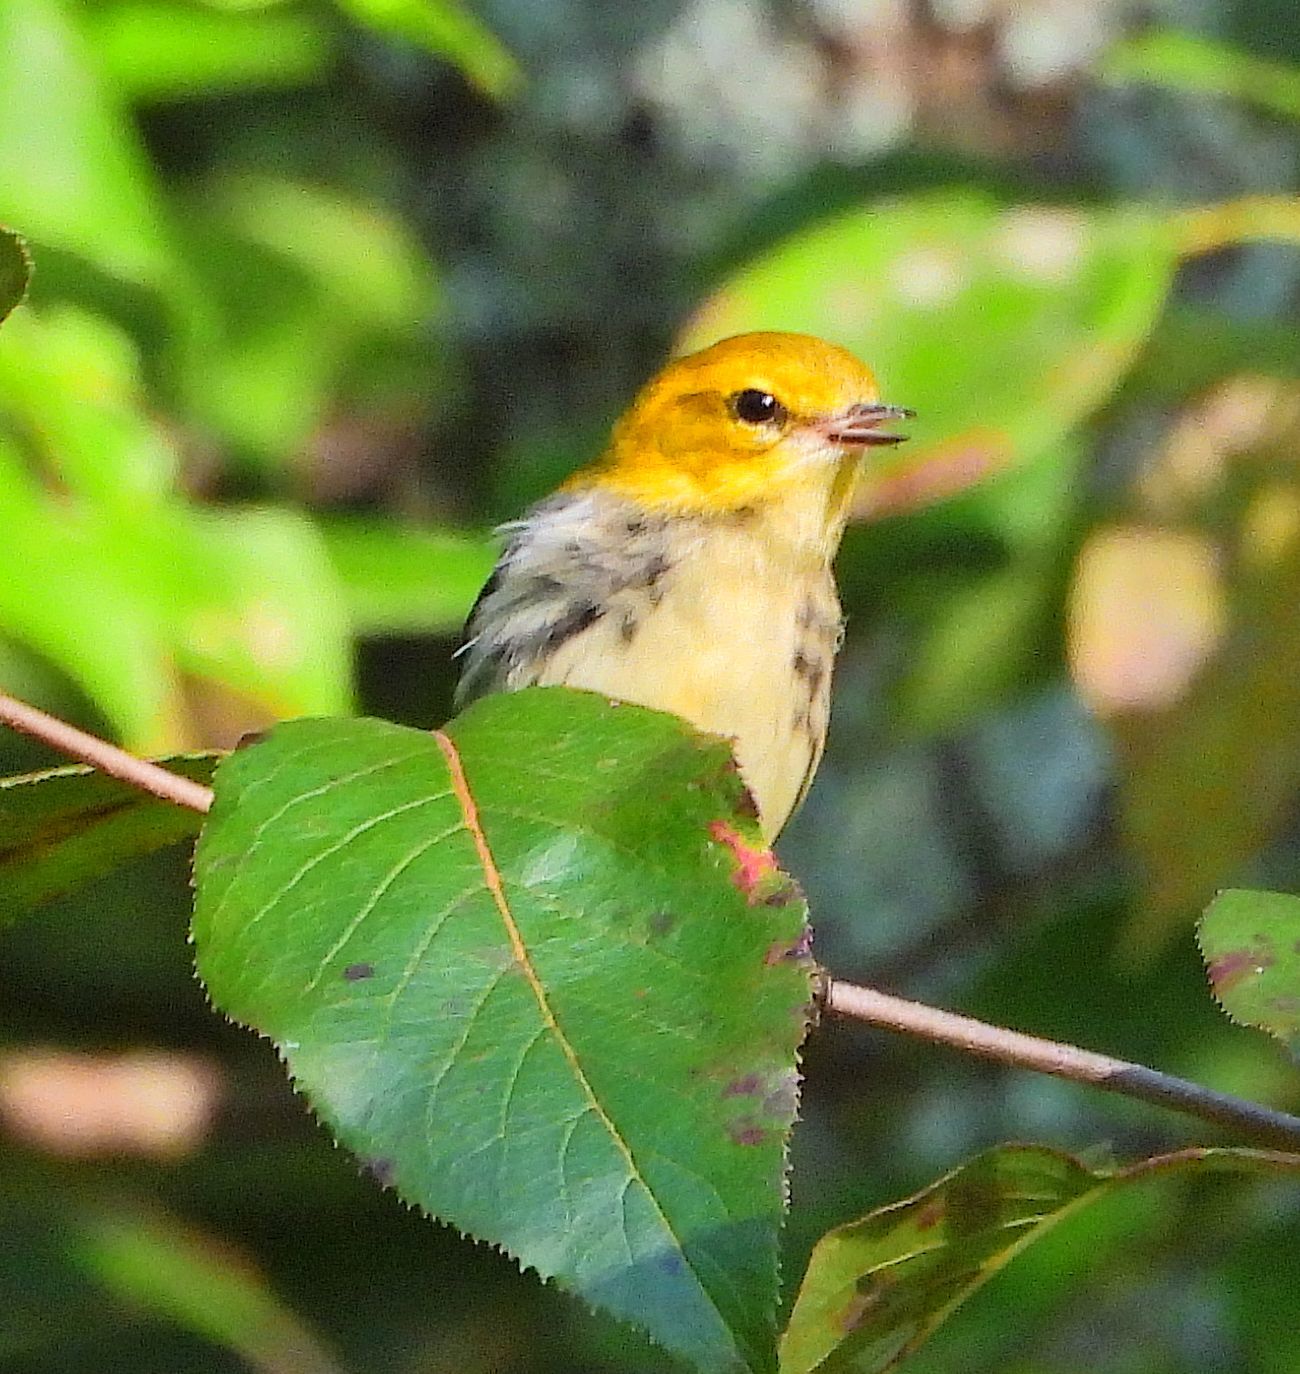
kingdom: Animalia
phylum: Chordata
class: Aves
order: Passeriformes
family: Parulidae
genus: Setophaga
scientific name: Setophaga virens
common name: Black-throated green warbler
